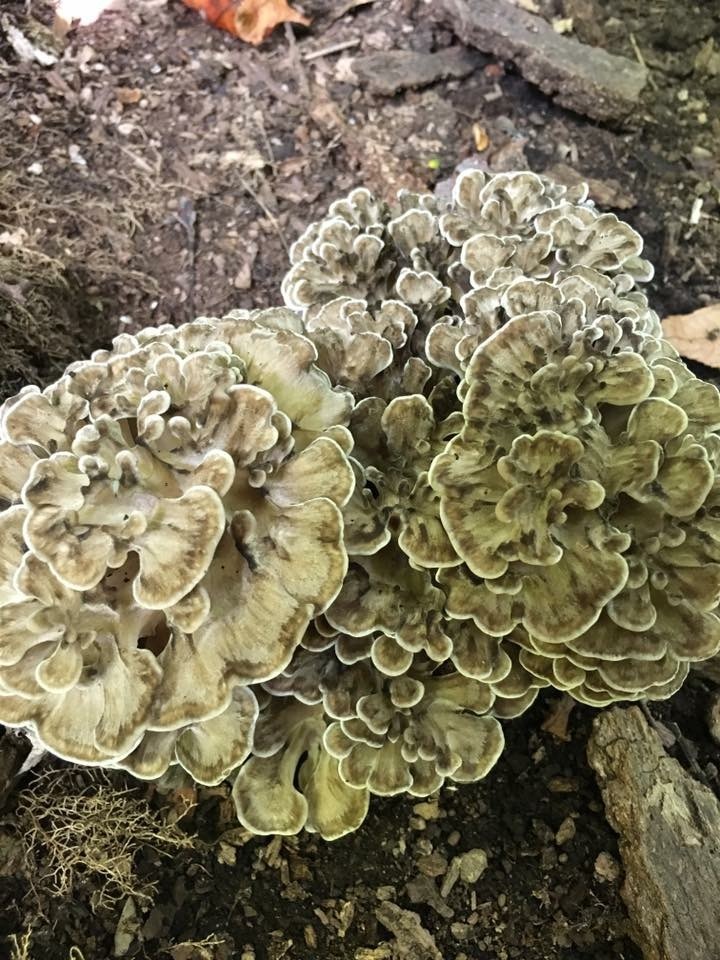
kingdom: Fungi
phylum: Basidiomycota
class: Agaricomycetes
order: Polyporales
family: Grifolaceae
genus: Grifola
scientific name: Grifola frondosa
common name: Hen of the woods
